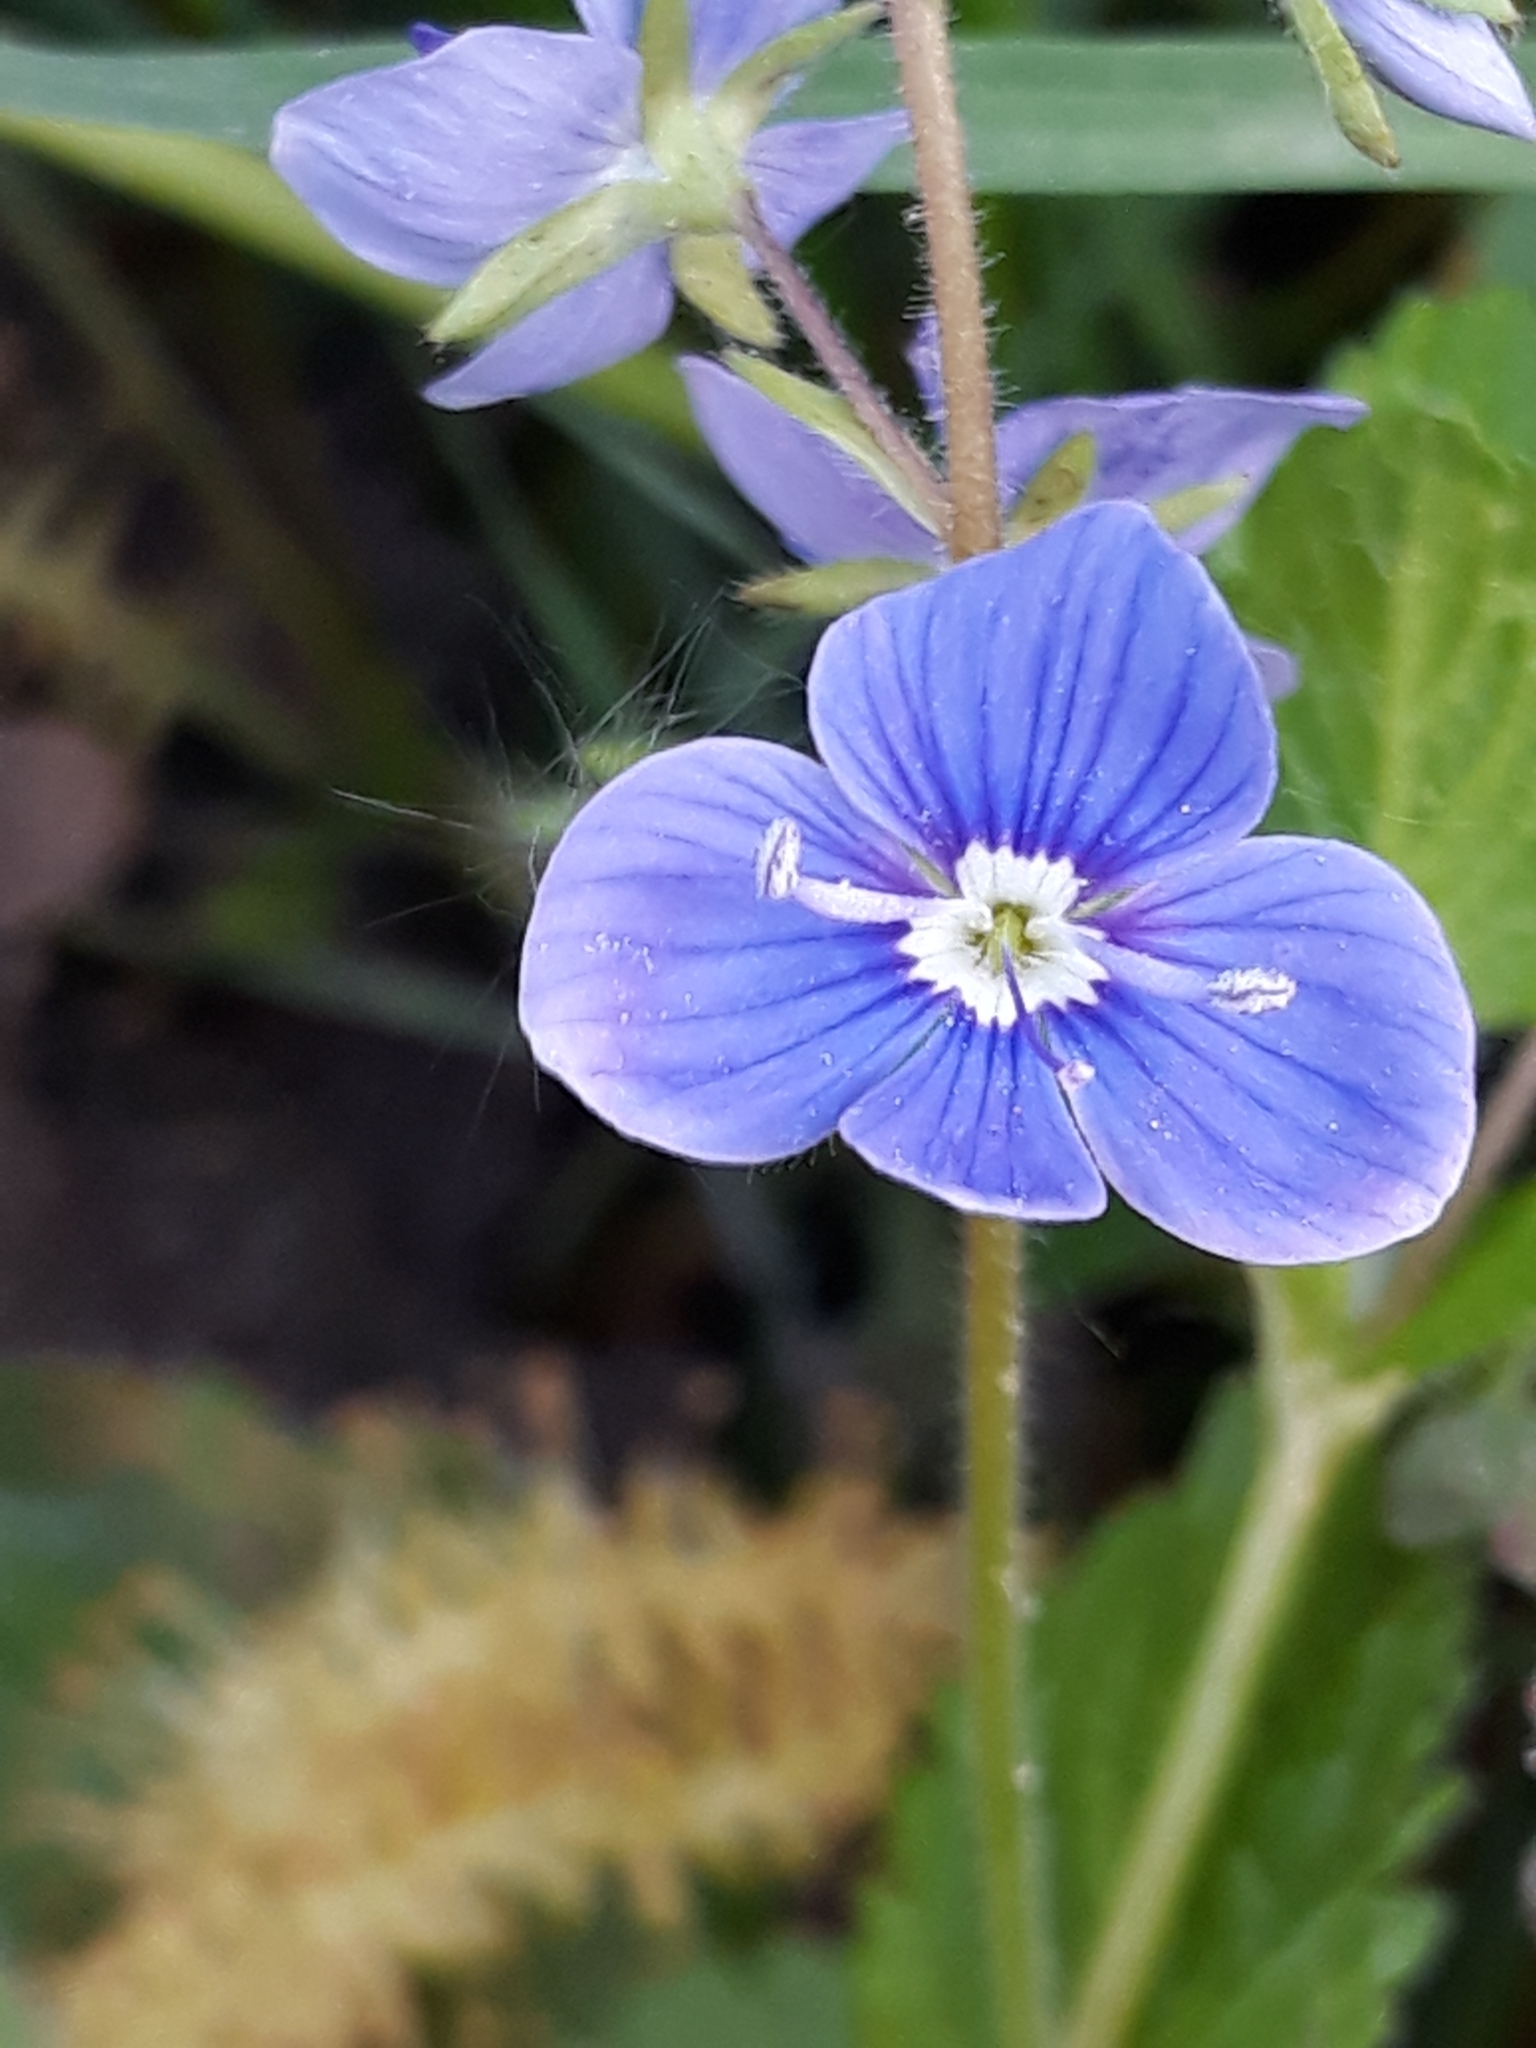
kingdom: Plantae
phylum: Tracheophyta
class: Magnoliopsida
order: Lamiales
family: Plantaginaceae
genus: Veronica
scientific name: Veronica chamaedrys
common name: Germander speedwell
